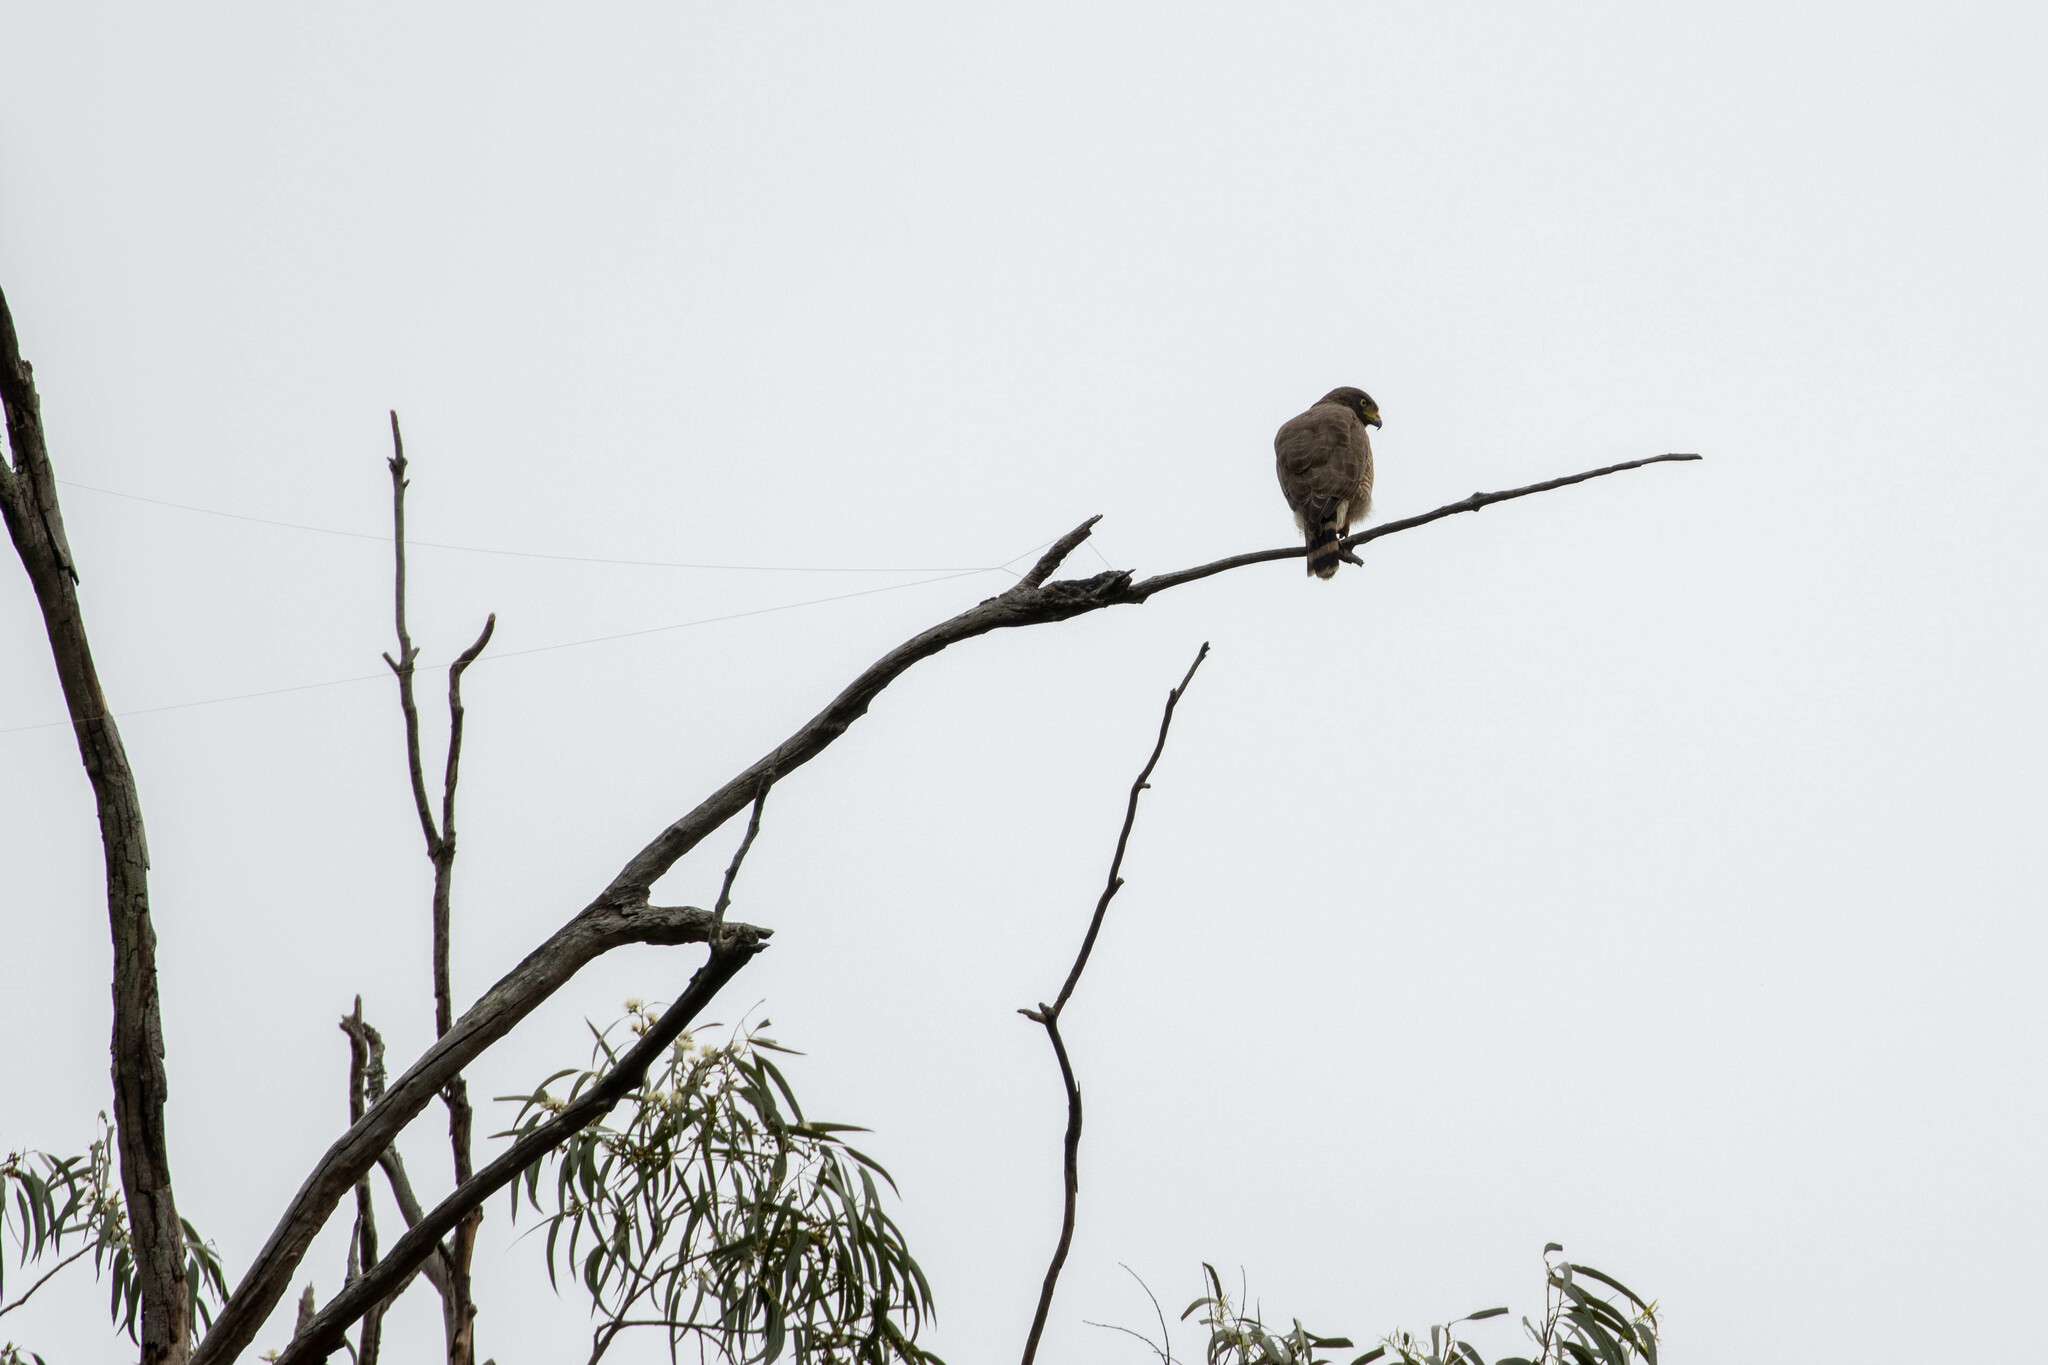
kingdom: Animalia
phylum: Chordata
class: Aves
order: Accipitriformes
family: Accipitridae
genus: Rupornis
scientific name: Rupornis magnirostris
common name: Roadside hawk
